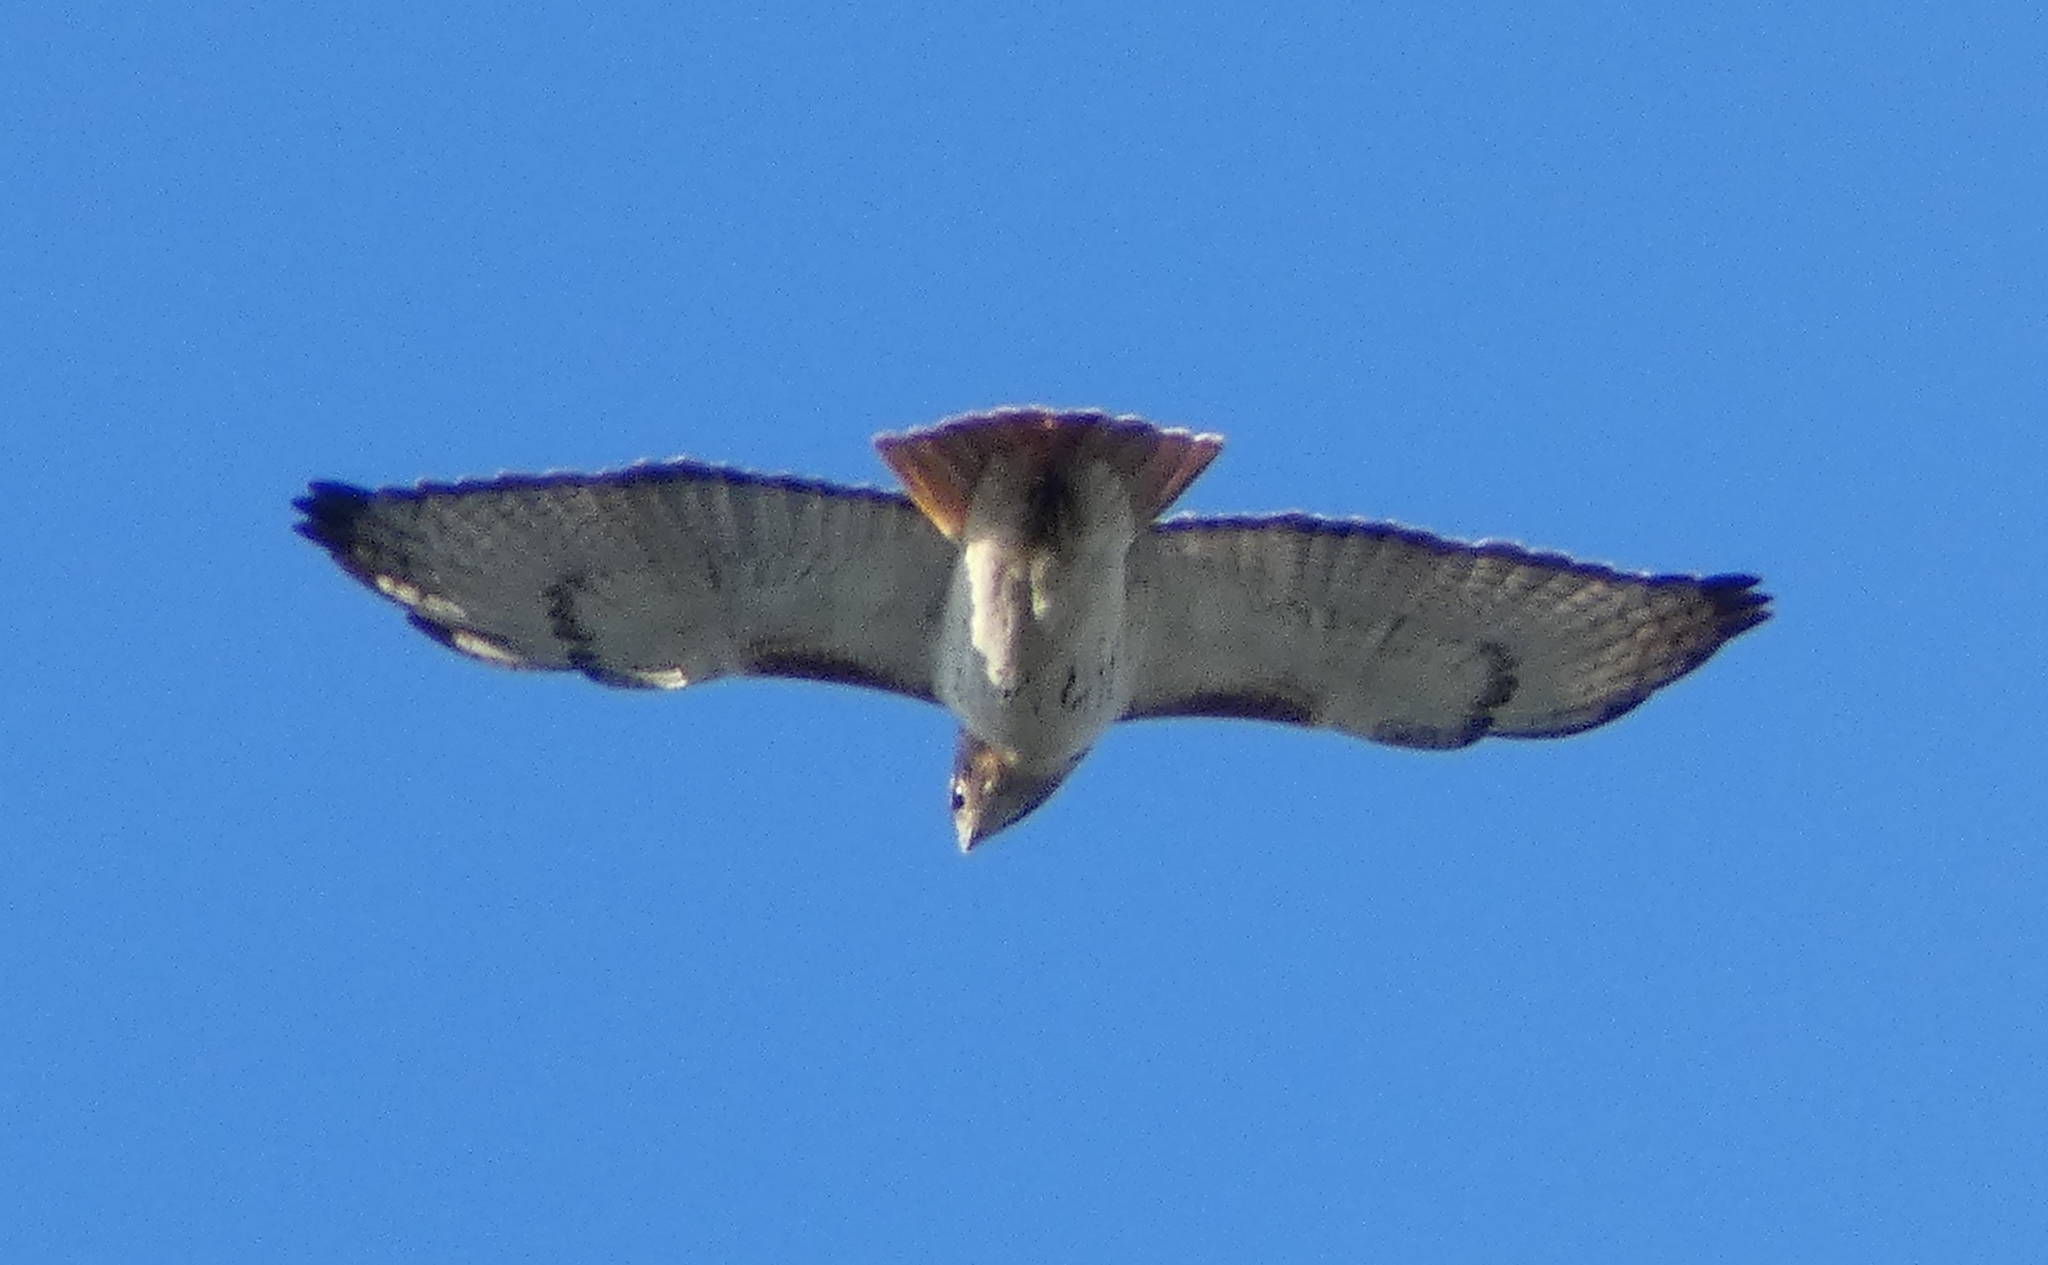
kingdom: Animalia
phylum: Chordata
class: Aves
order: Accipitriformes
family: Accipitridae
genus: Buteo
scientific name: Buteo jamaicensis
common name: Red-tailed hawk
